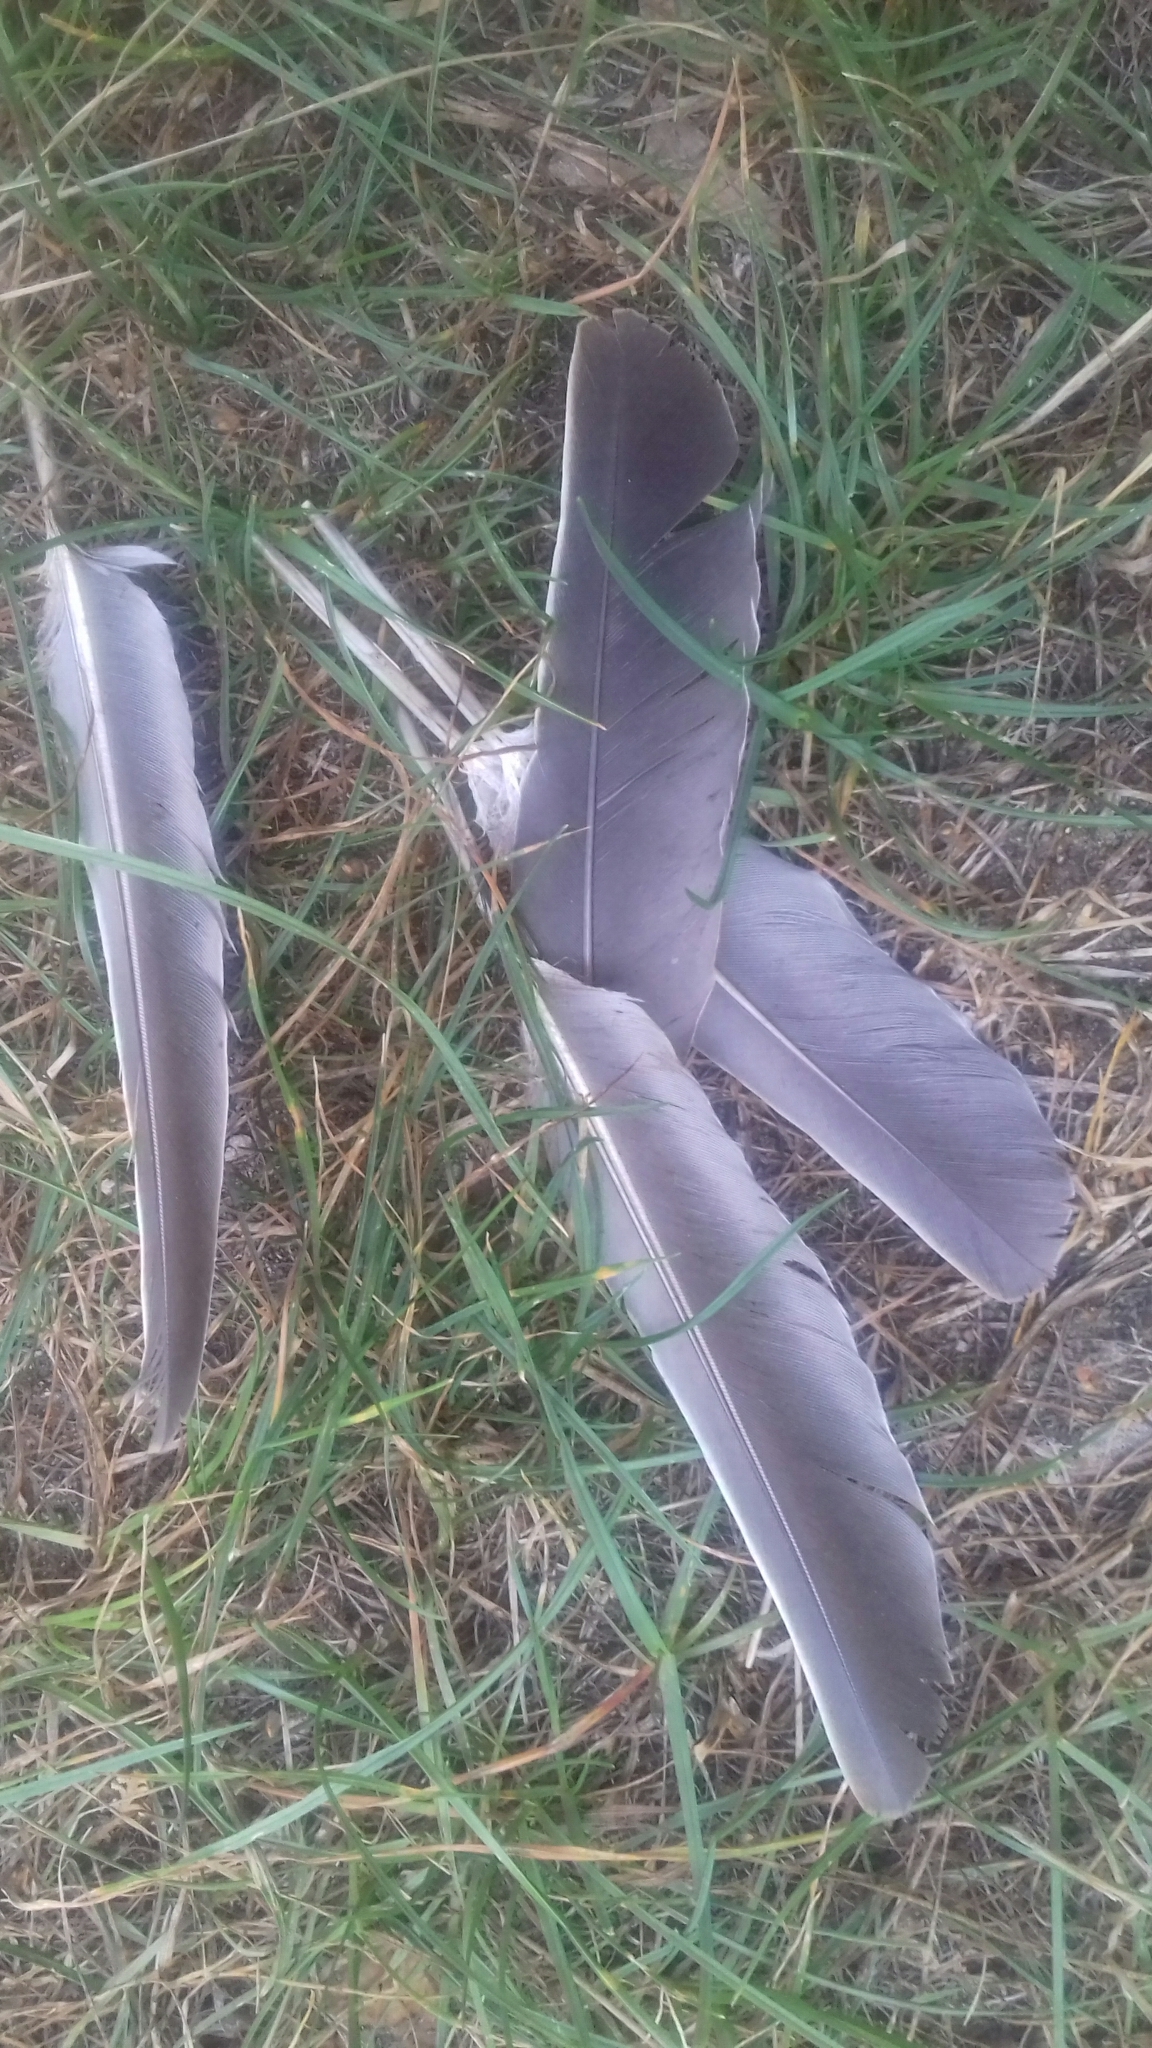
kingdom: Animalia
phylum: Chordata
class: Aves
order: Columbiformes
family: Columbidae
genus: Columba
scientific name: Columba palumbus
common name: Common wood pigeon
